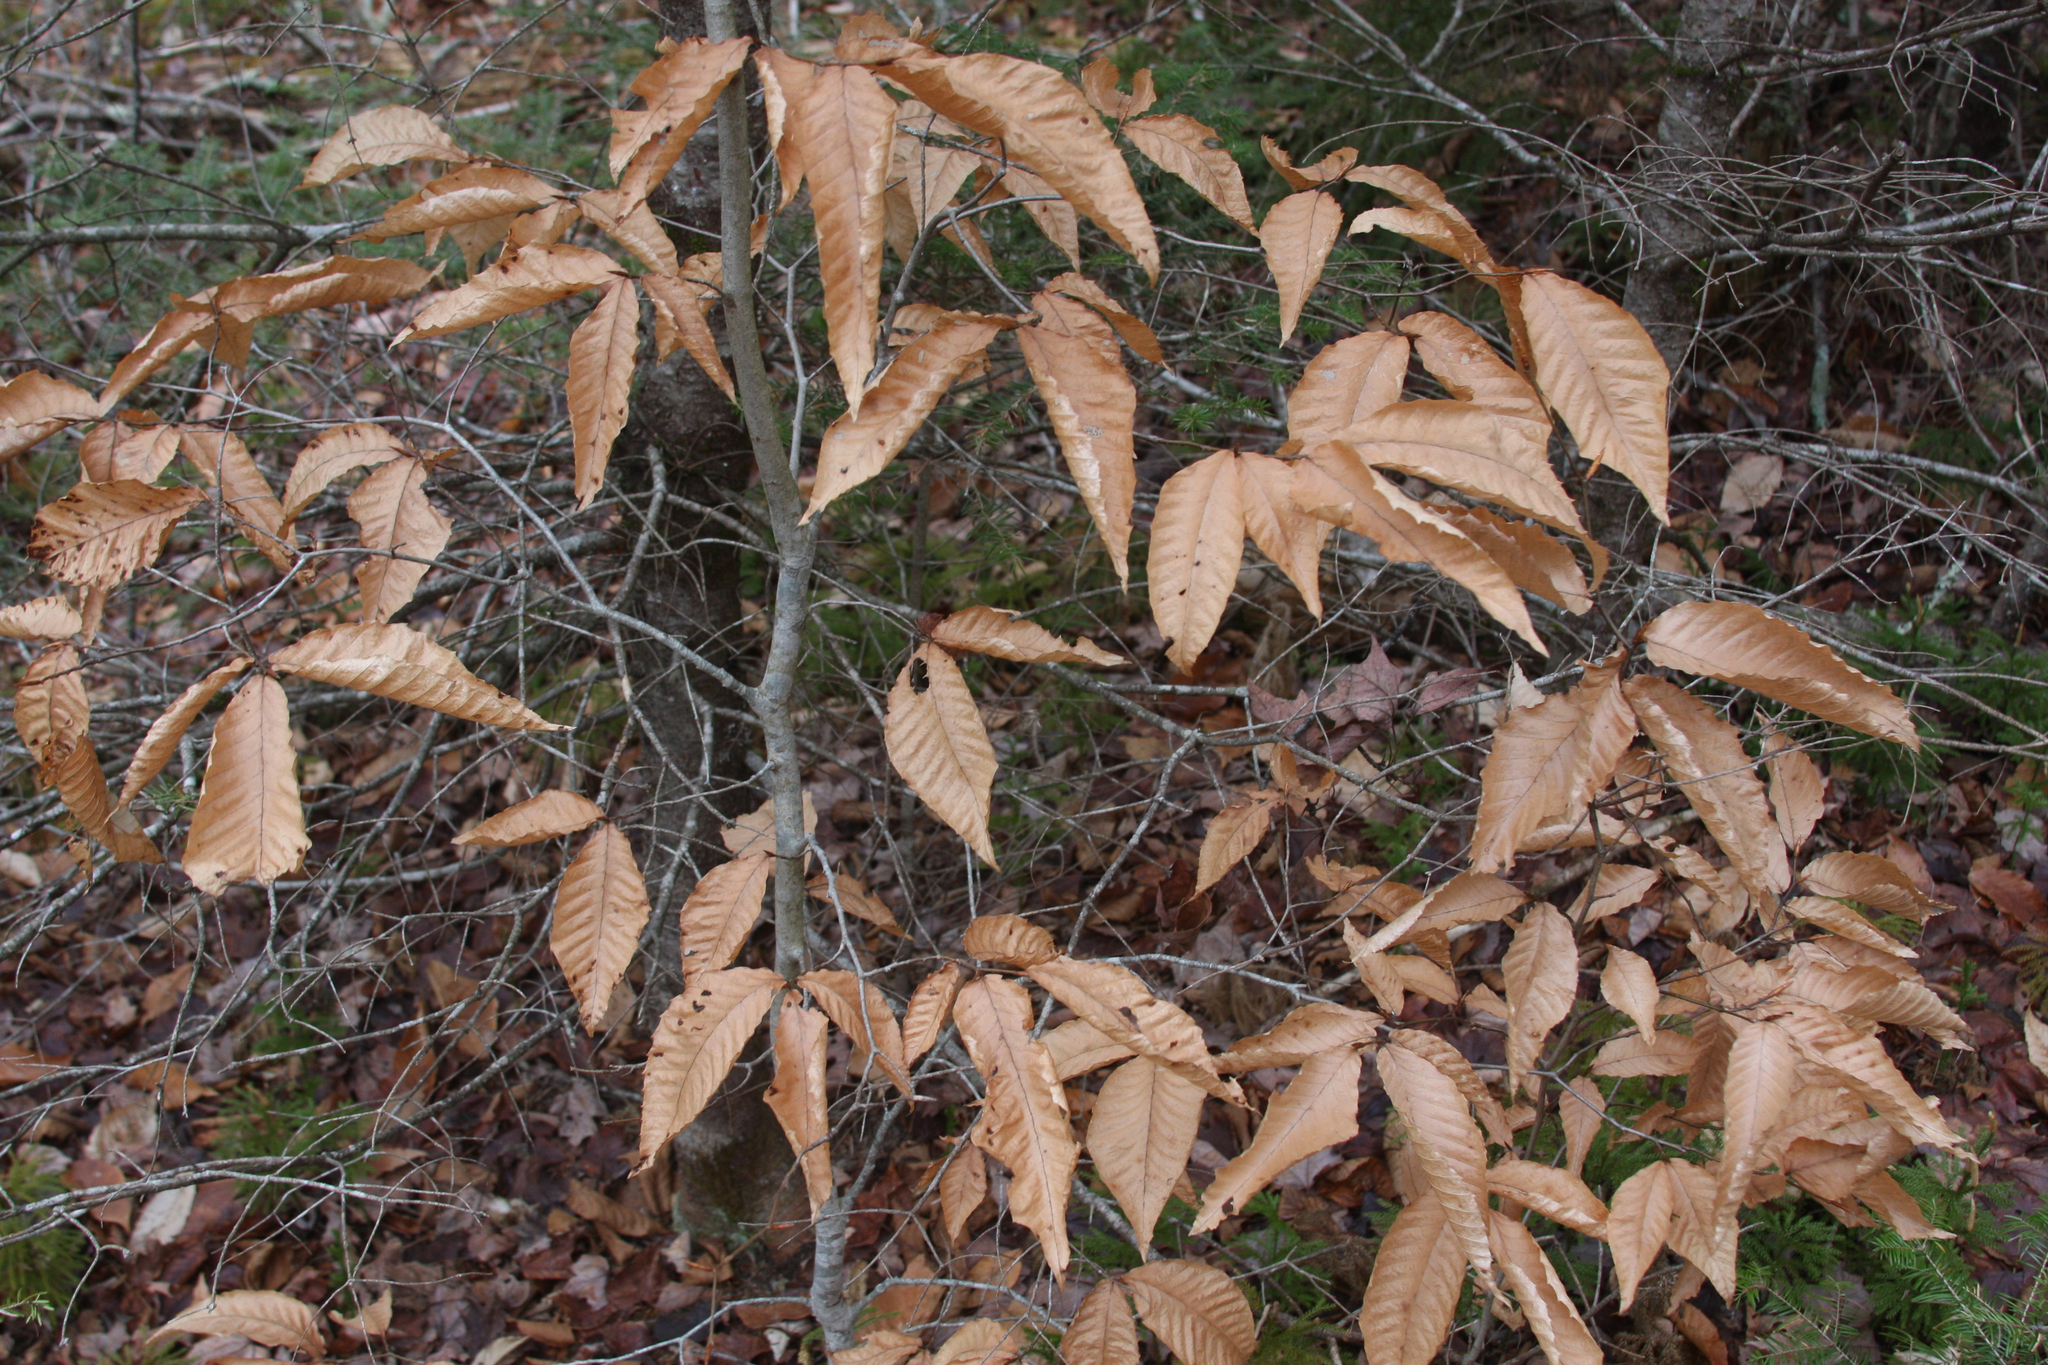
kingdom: Plantae
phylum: Tracheophyta
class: Magnoliopsida
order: Fagales
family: Fagaceae
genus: Fagus
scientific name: Fagus grandifolia
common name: American beech
